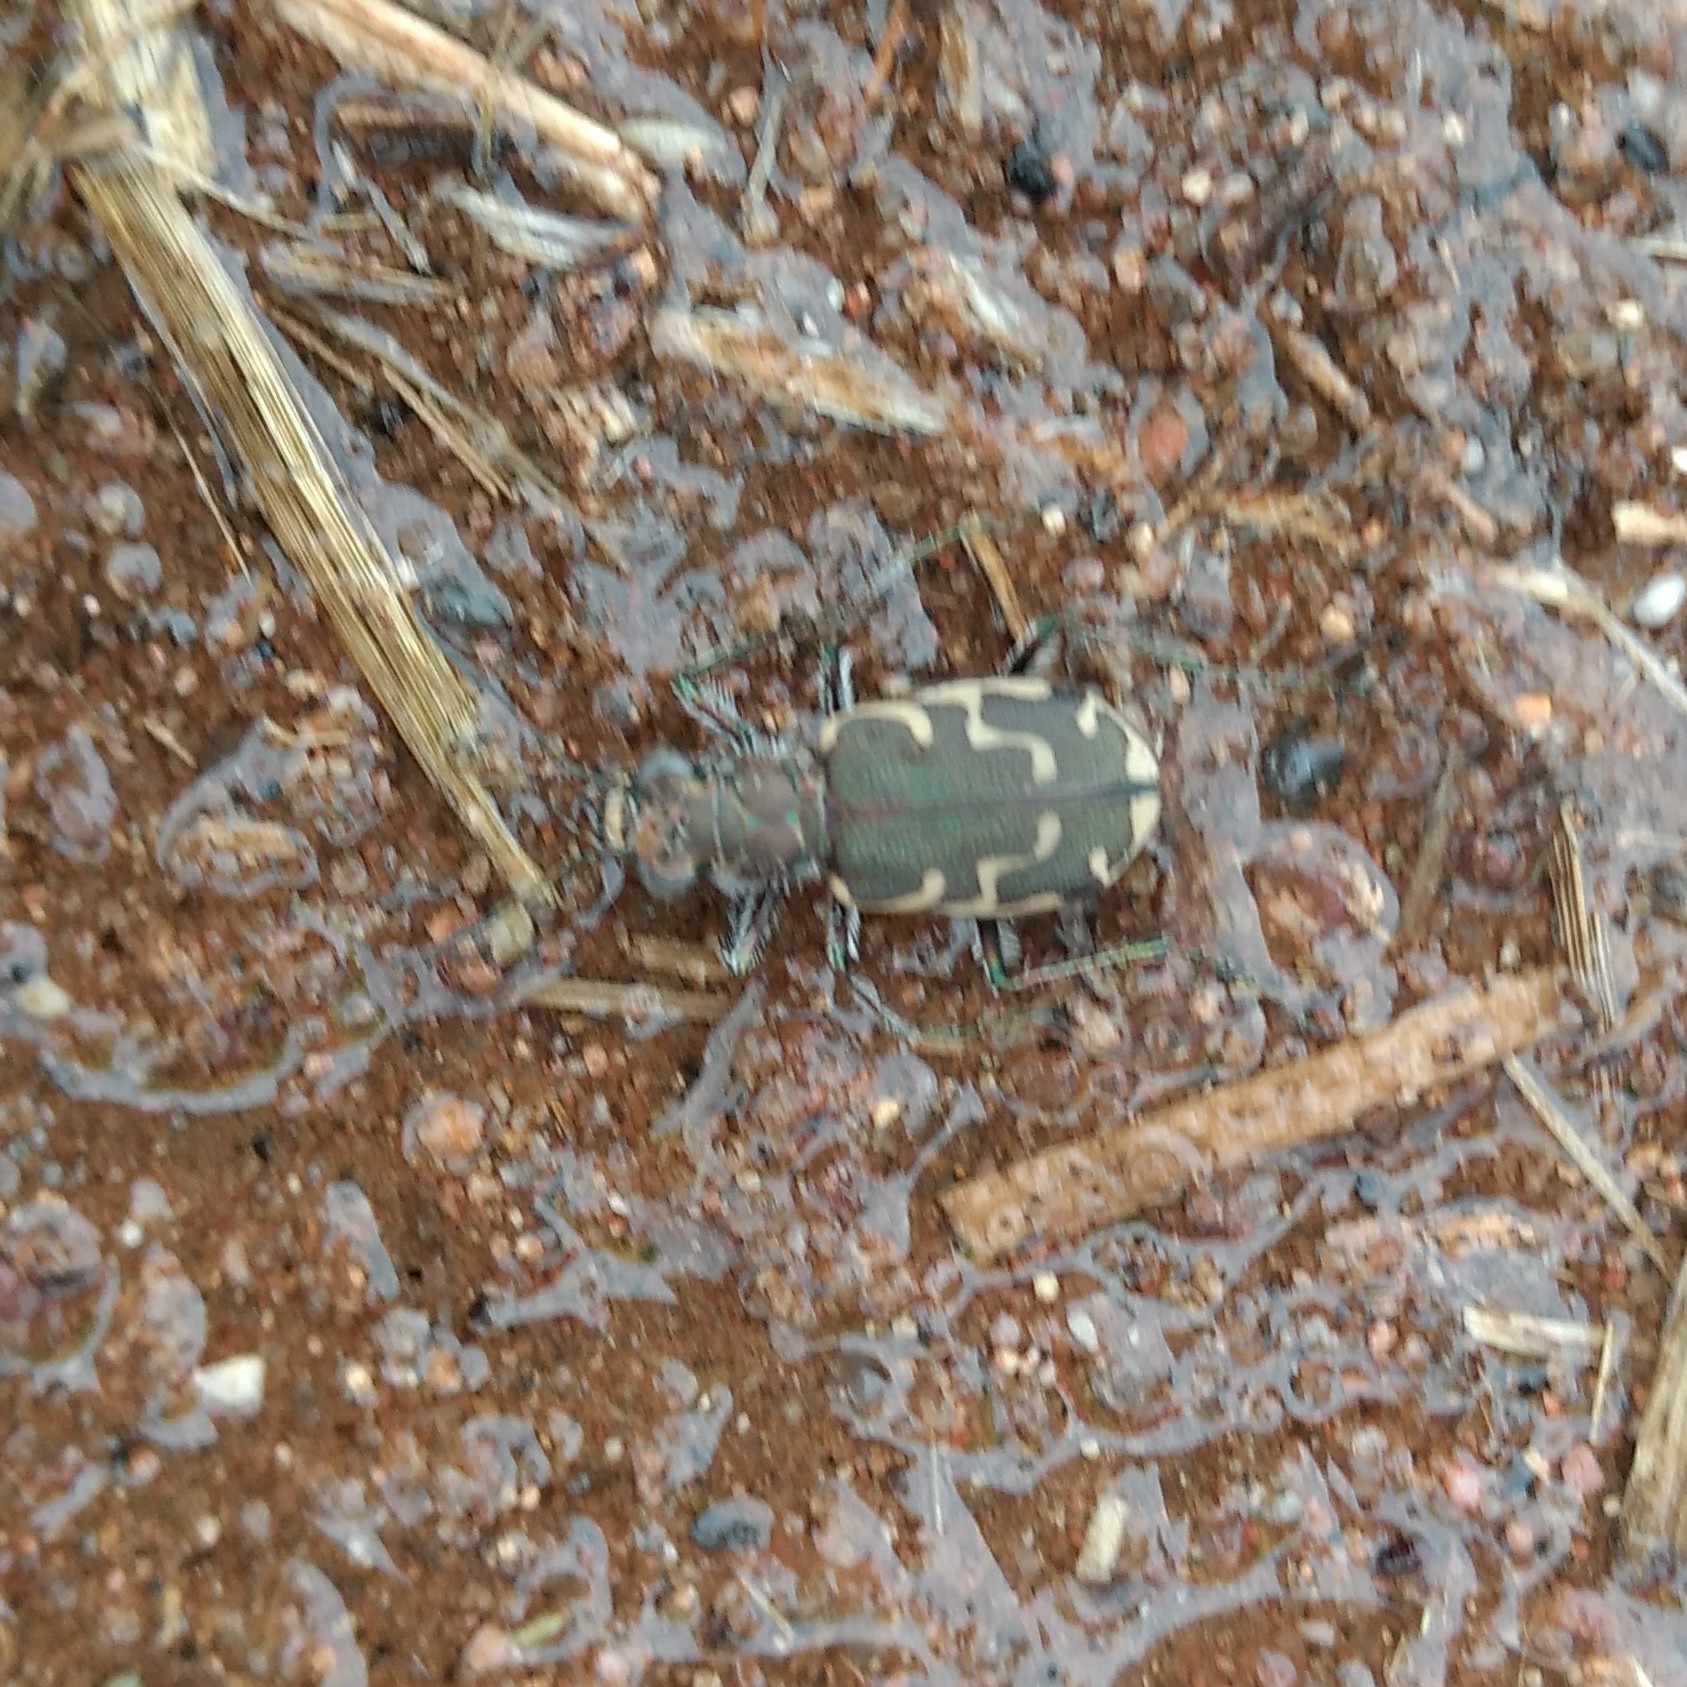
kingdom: Animalia
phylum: Arthropoda
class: Insecta
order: Coleoptera
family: Carabidae
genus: Cicindela
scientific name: Cicindela repanda
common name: Bronzed tiger beetle
